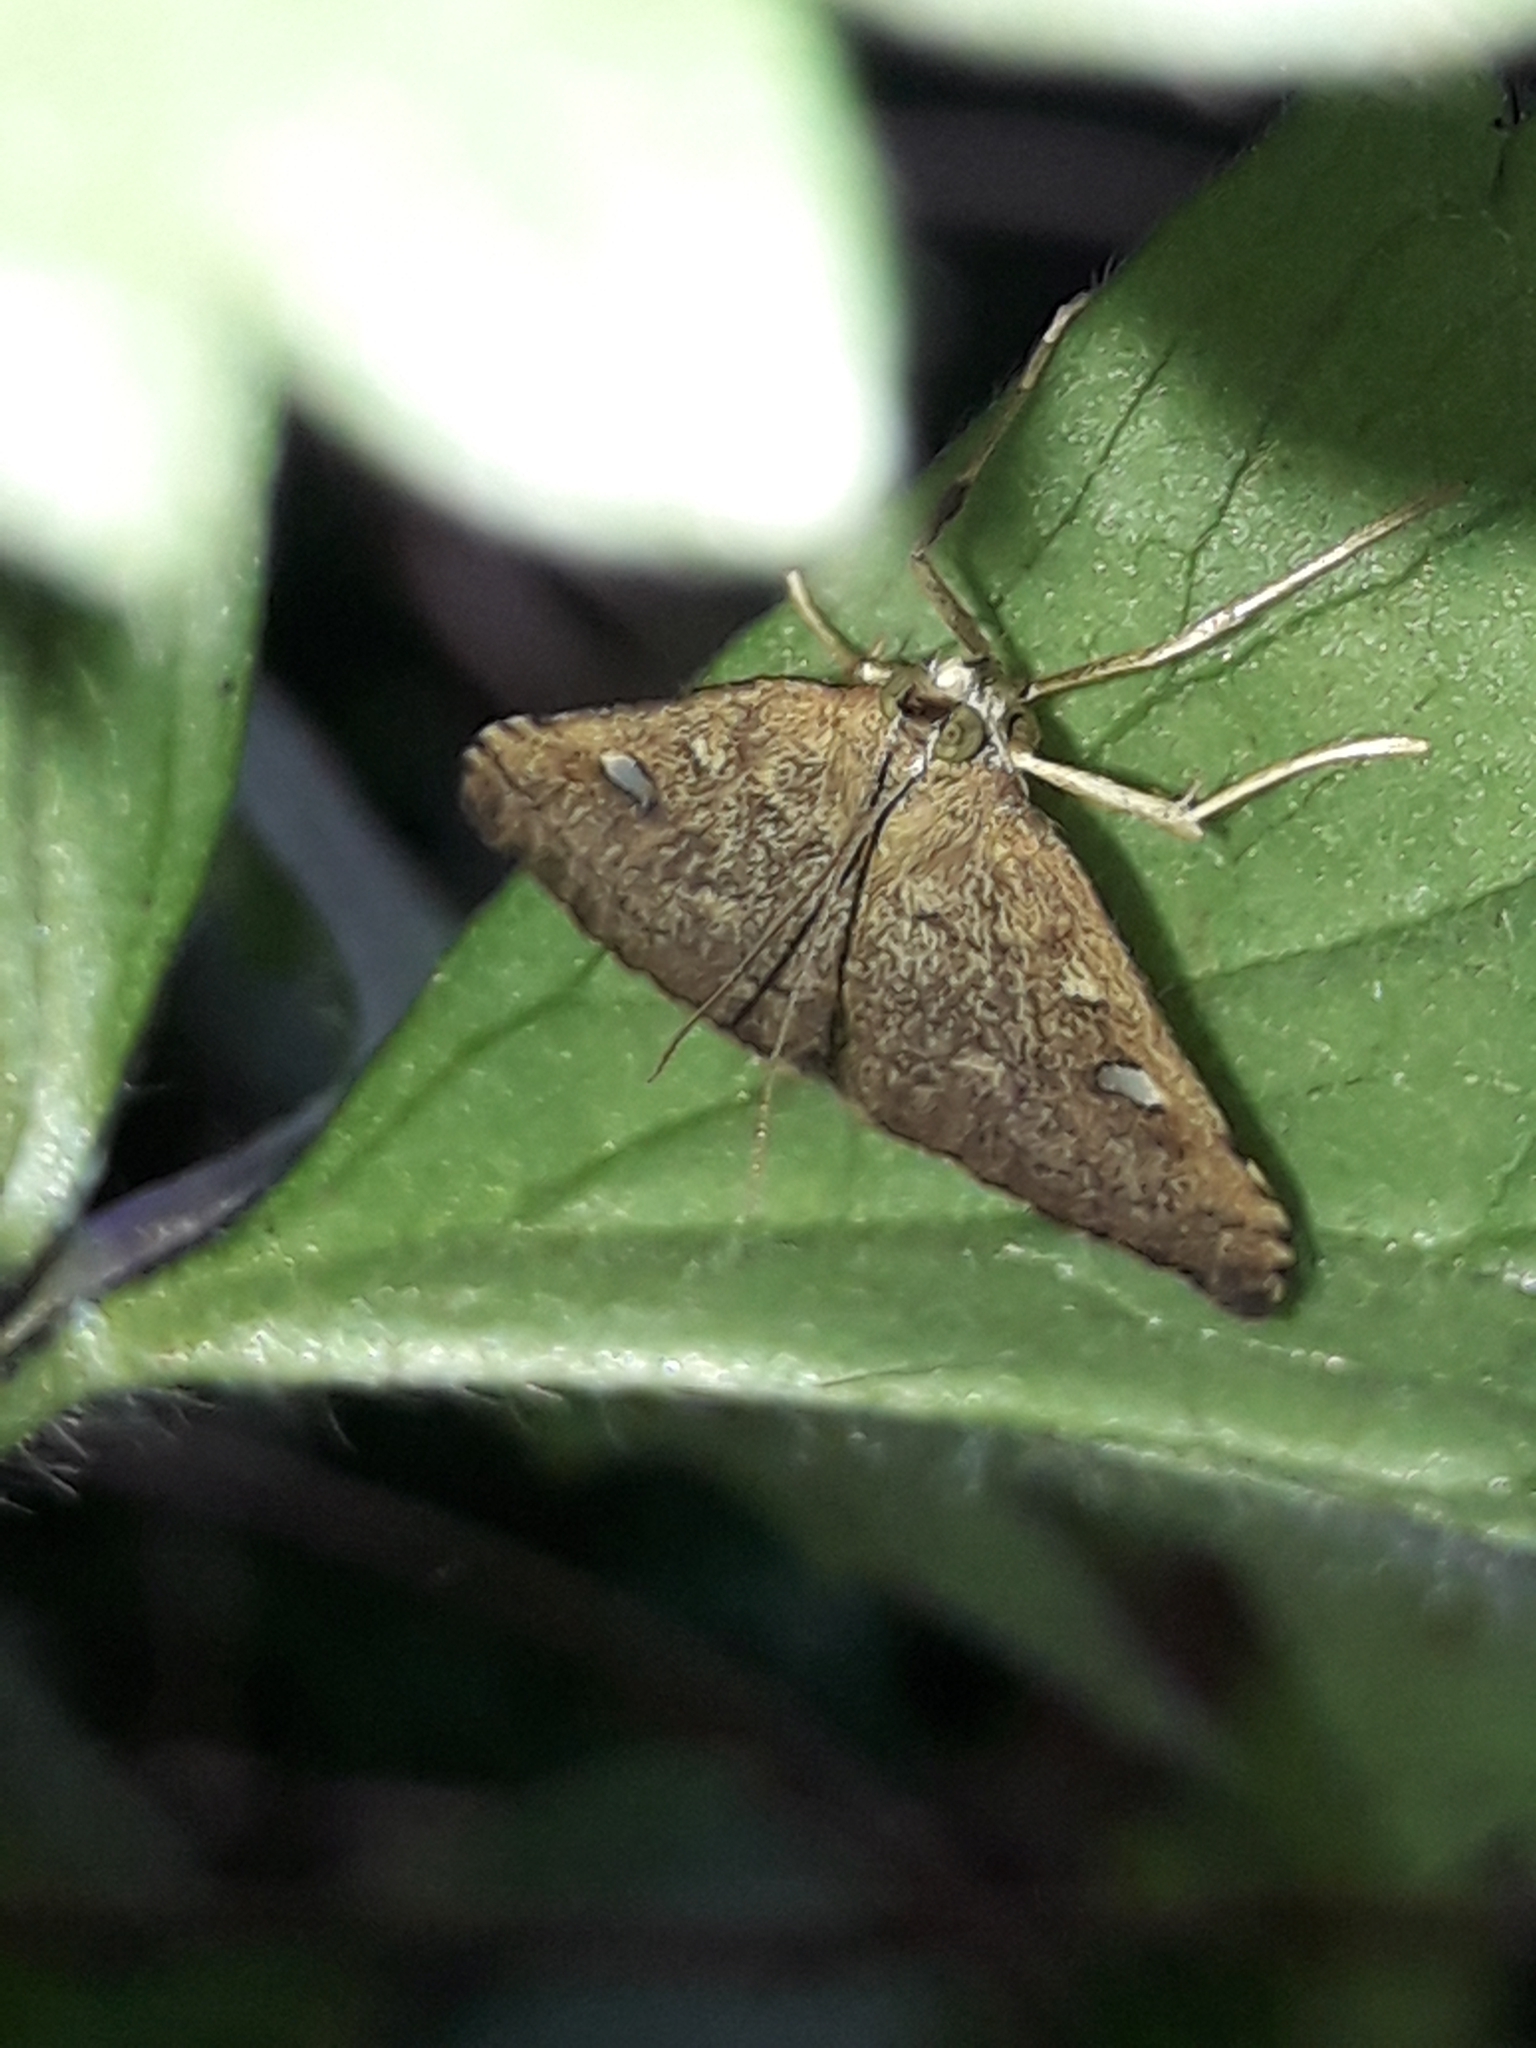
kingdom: Animalia
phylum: Arthropoda
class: Insecta
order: Lepidoptera
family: Crambidae
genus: Udea
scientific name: Udea Mnesictena marmarina
